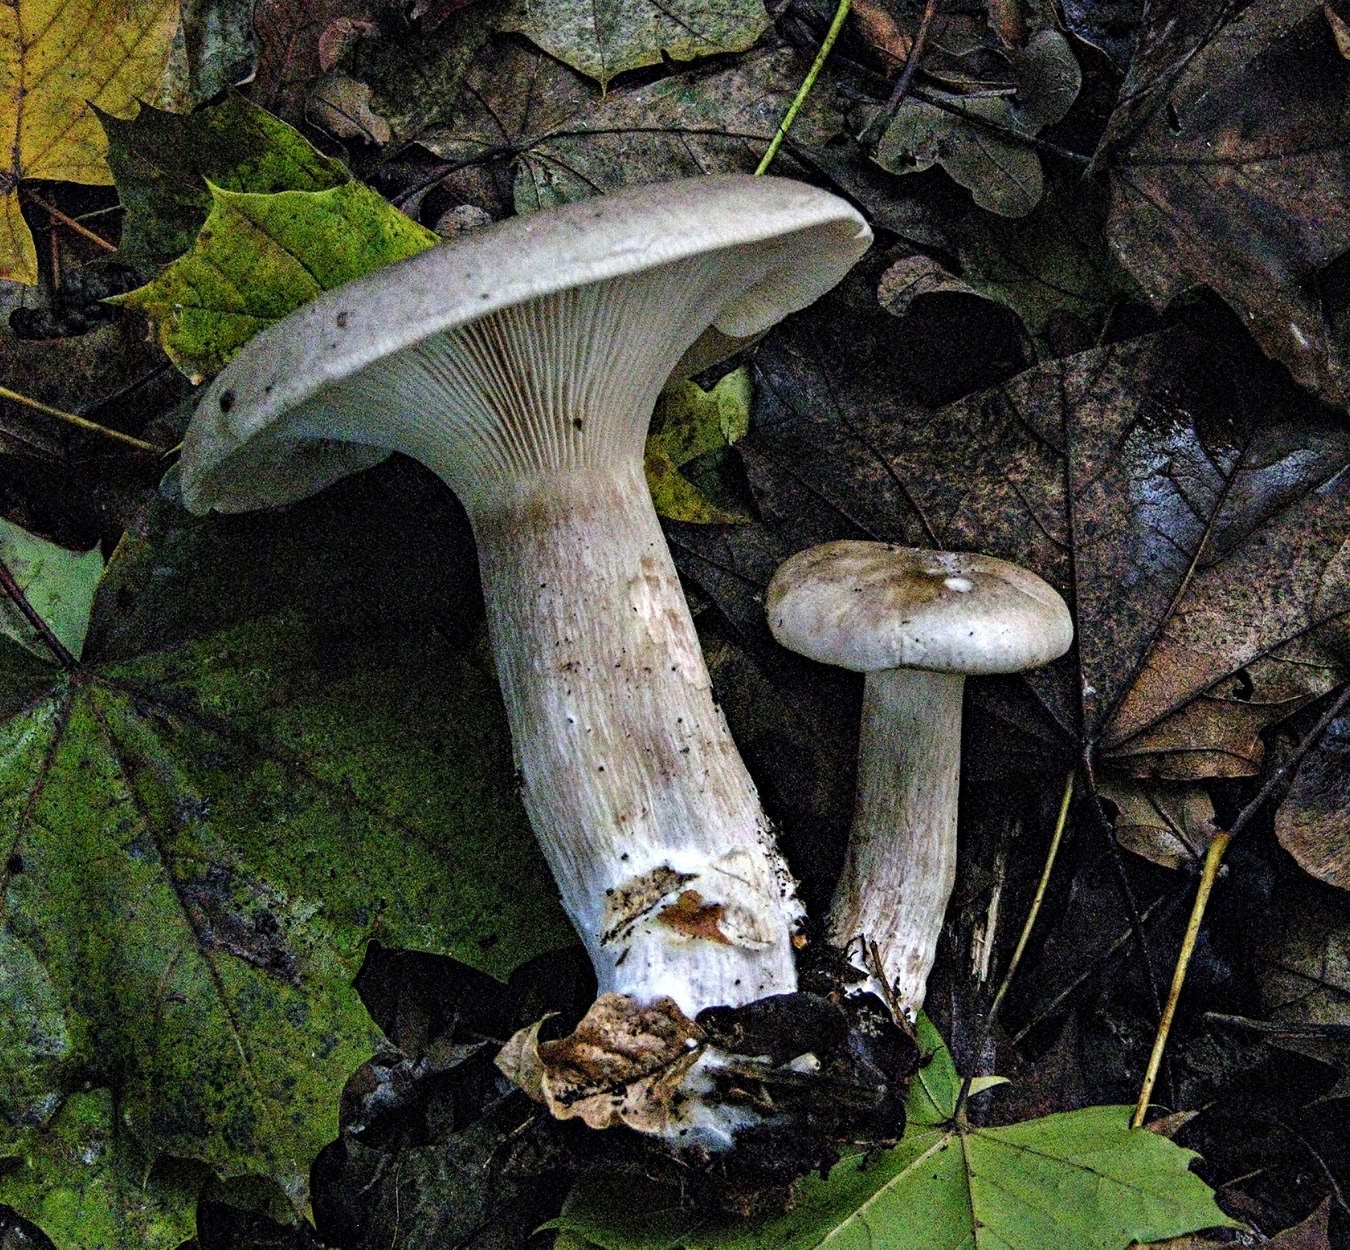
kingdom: Fungi
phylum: Basidiomycota
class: Agaricomycetes
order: Agaricales
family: Tricholomataceae
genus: Clitocybe
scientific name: Clitocybe nebularis
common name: Clouded agaric
